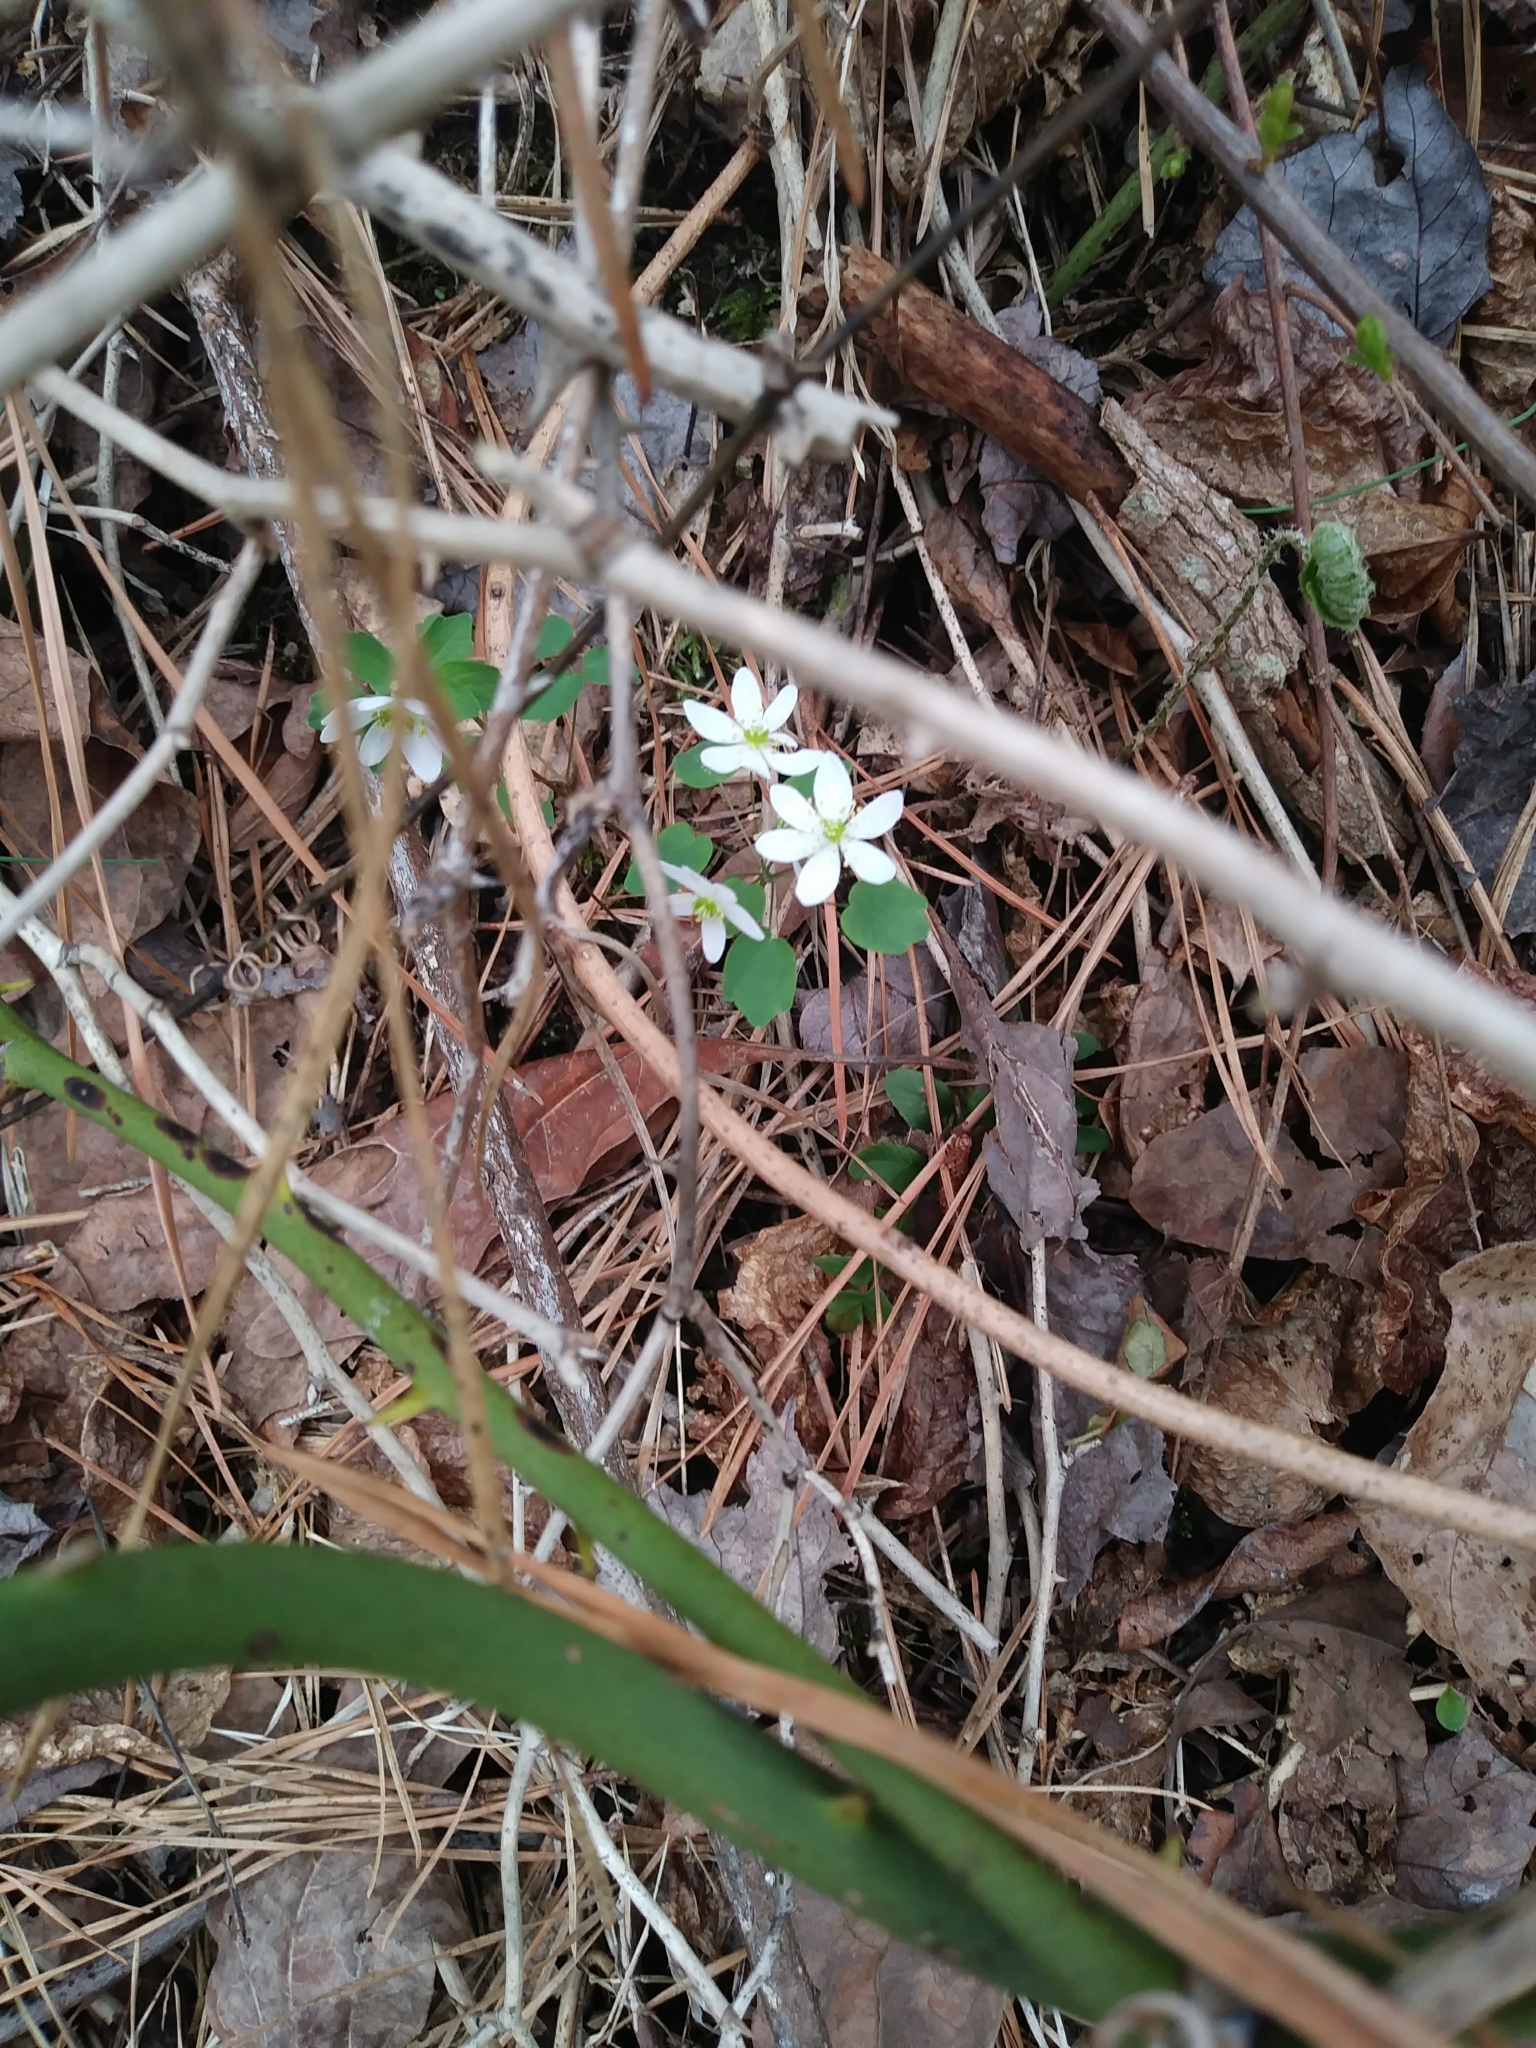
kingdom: Plantae
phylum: Tracheophyta
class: Magnoliopsida
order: Ranunculales
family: Ranunculaceae
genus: Thalictrum
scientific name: Thalictrum thalictroides
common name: Rue-anemone
